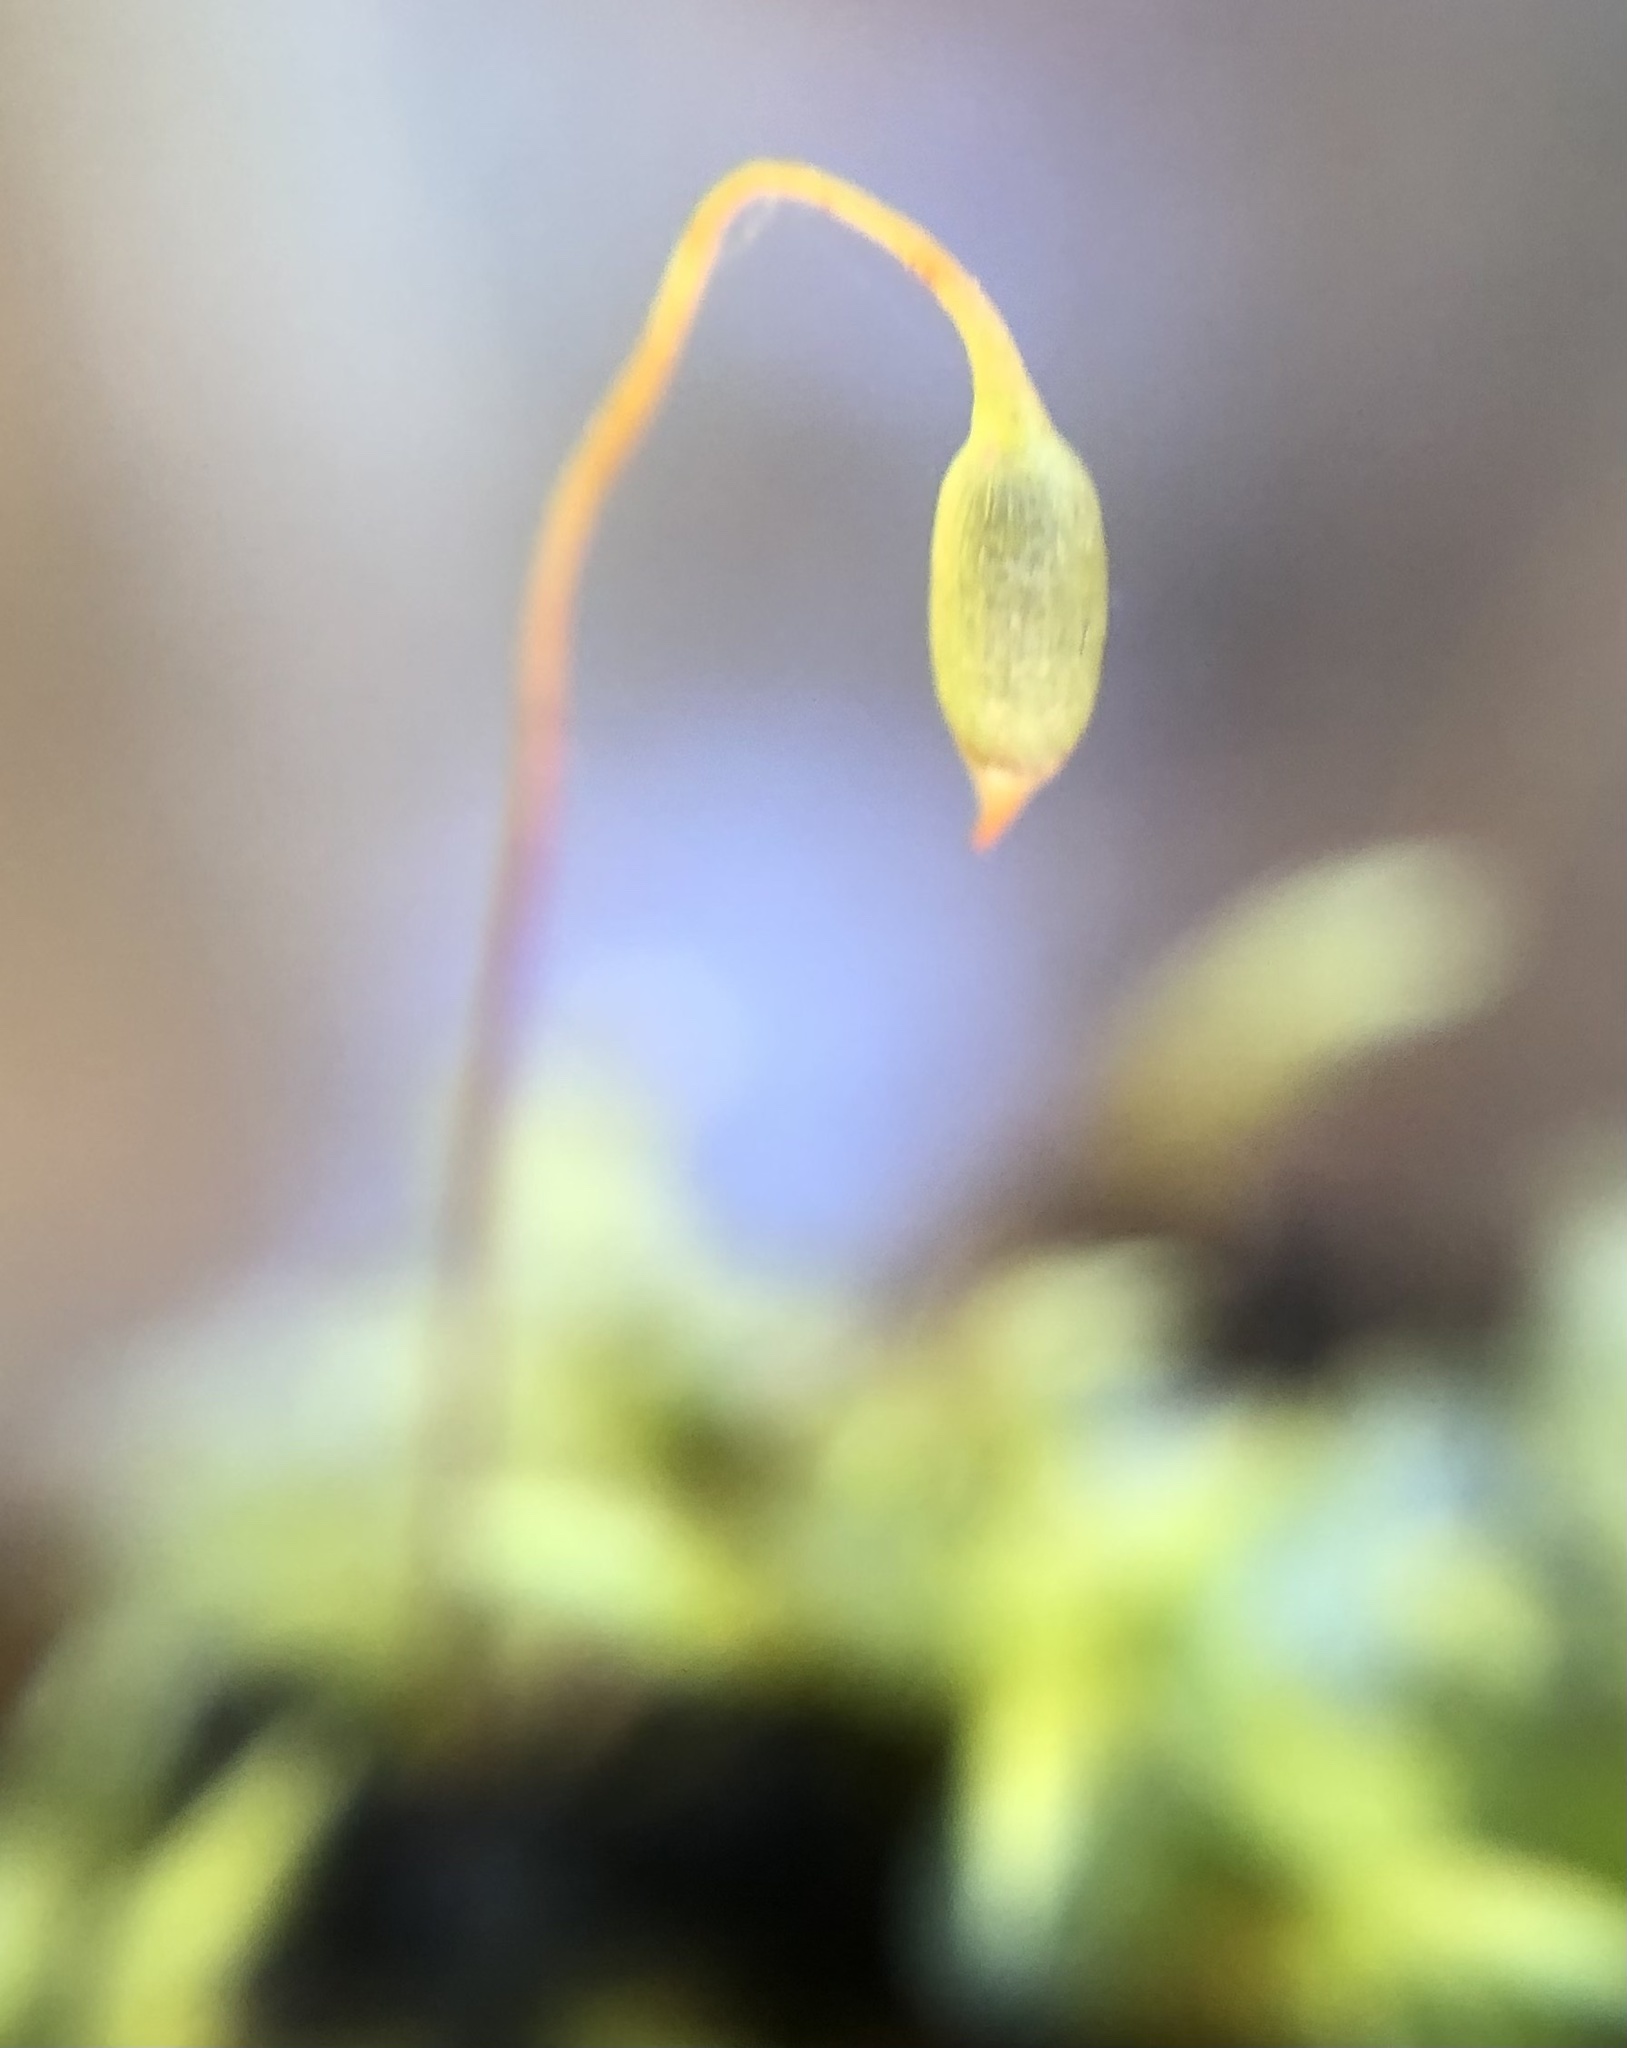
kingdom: Plantae
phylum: Bryophyta
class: Bryopsida
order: Bryales
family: Mniaceae
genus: Rhizomnium
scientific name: Rhizomnium punctatum
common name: Dotted leafy moss
